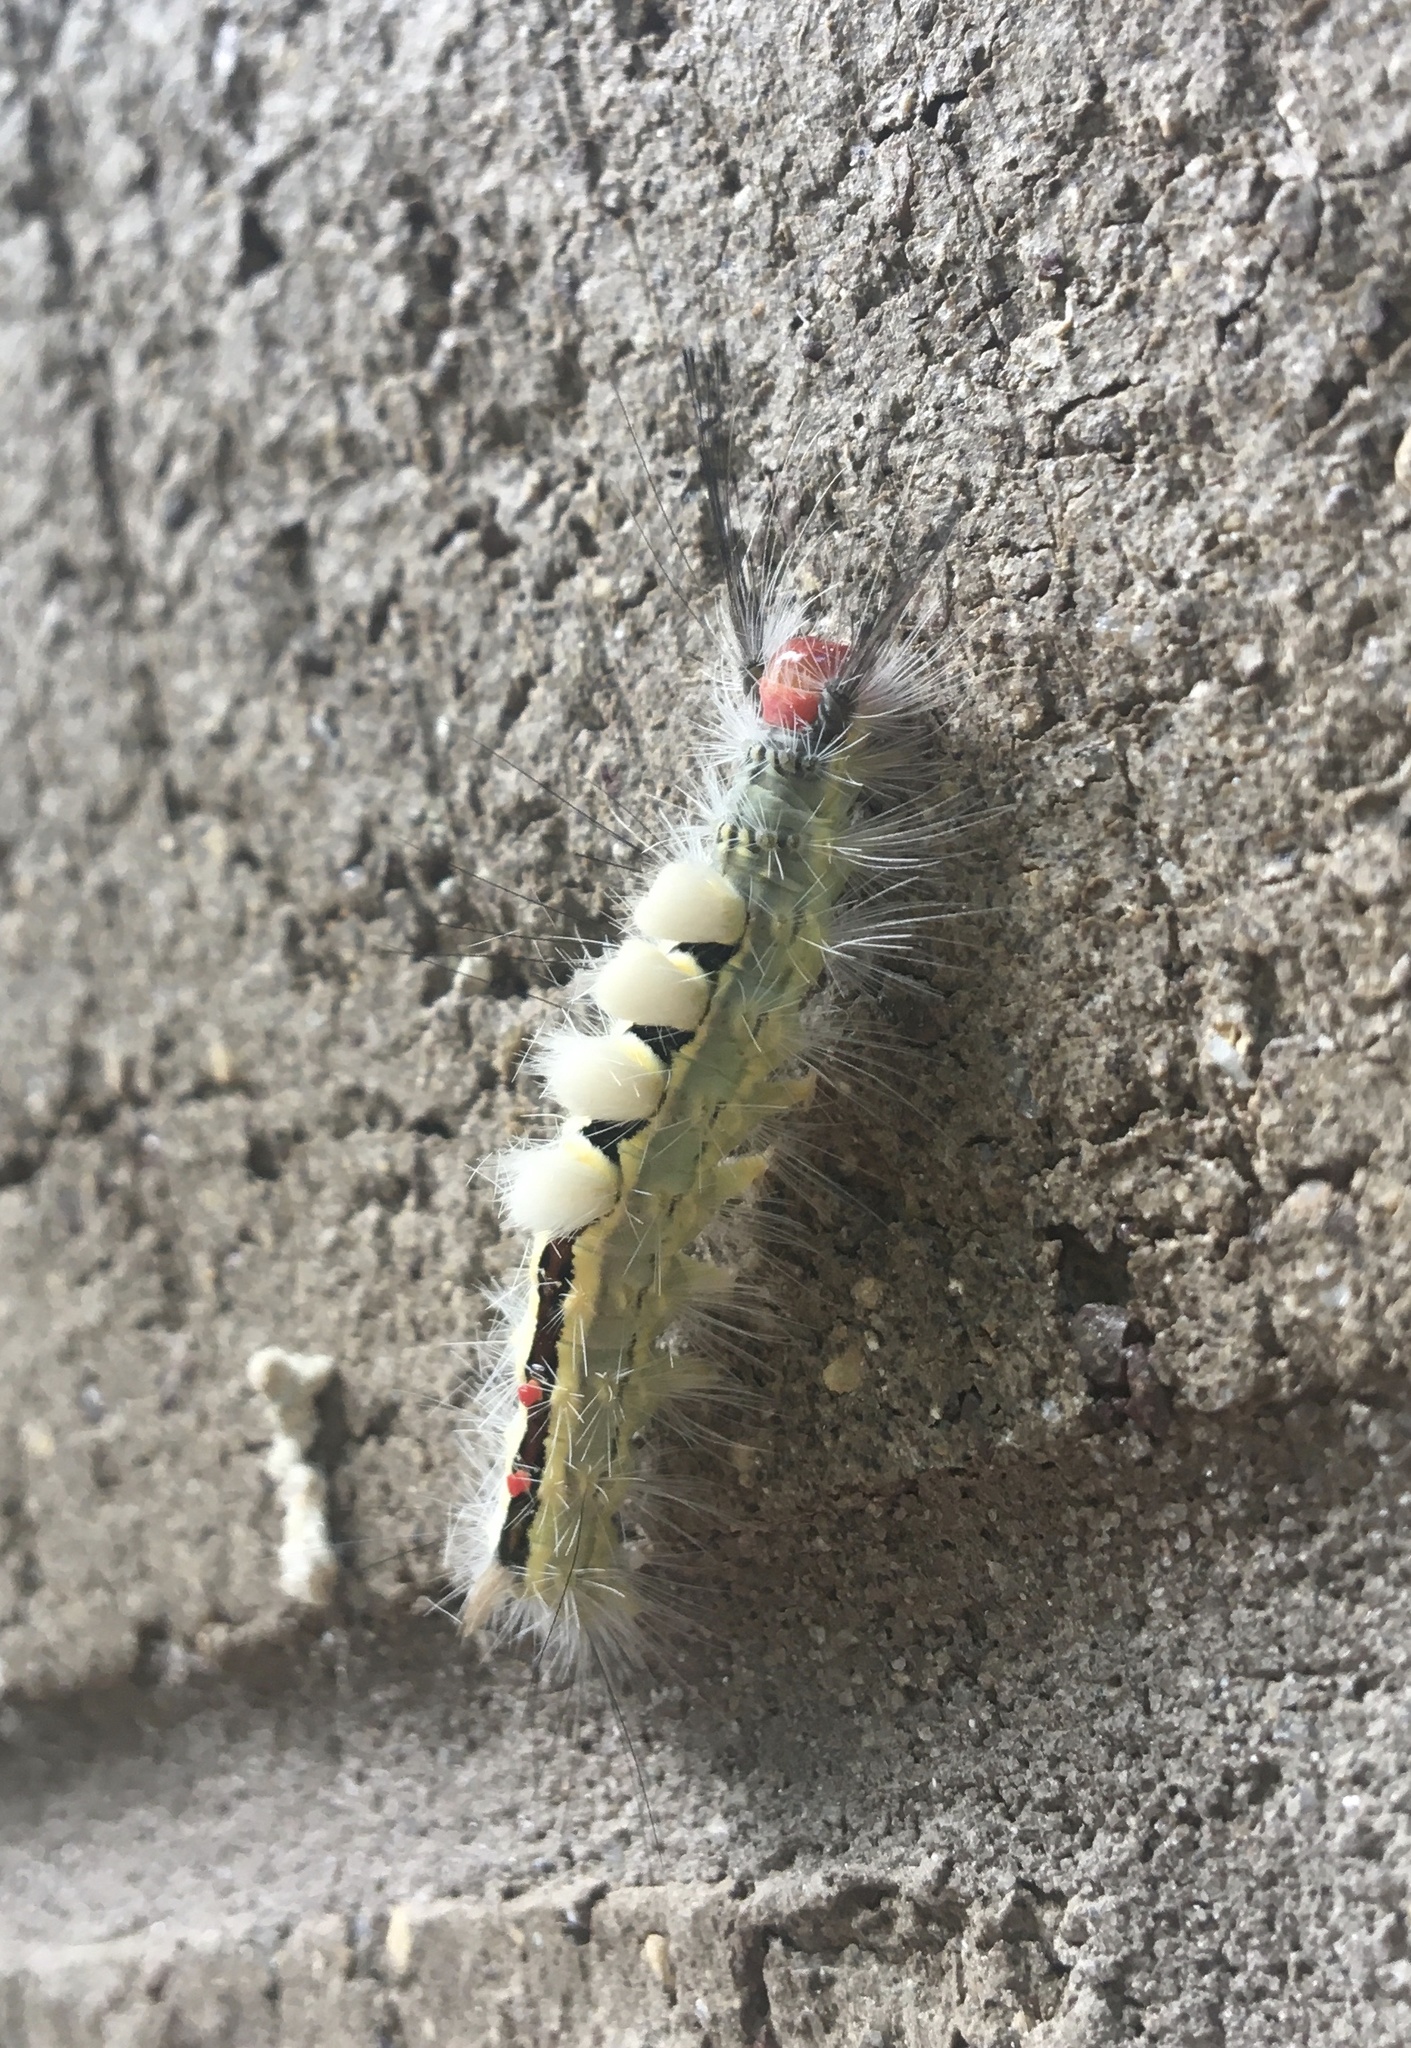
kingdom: Animalia
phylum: Arthropoda
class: Insecta
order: Lepidoptera
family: Erebidae
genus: Orgyia
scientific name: Orgyia leucostigma
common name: White-marked tussock moth
